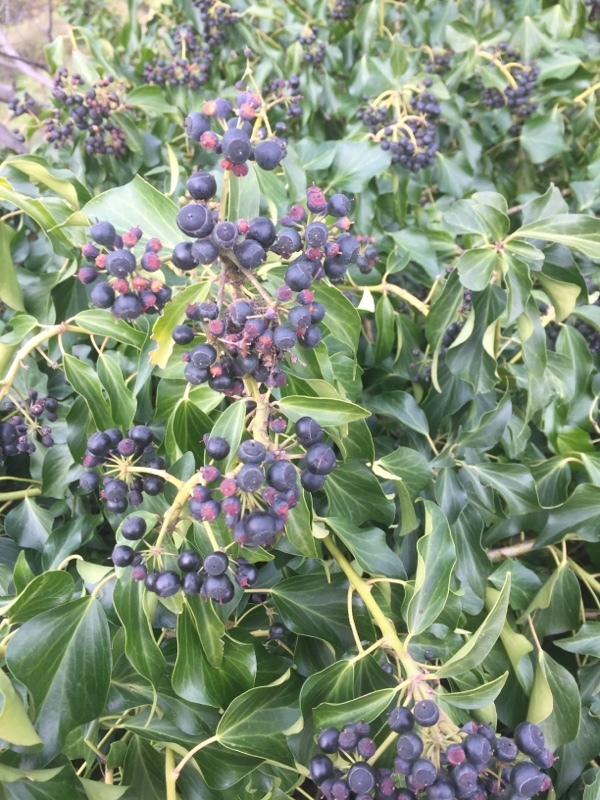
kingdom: Plantae
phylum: Tracheophyta
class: Magnoliopsida
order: Apiales
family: Araliaceae
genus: Hedera
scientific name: Hedera helix
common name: Ivy
